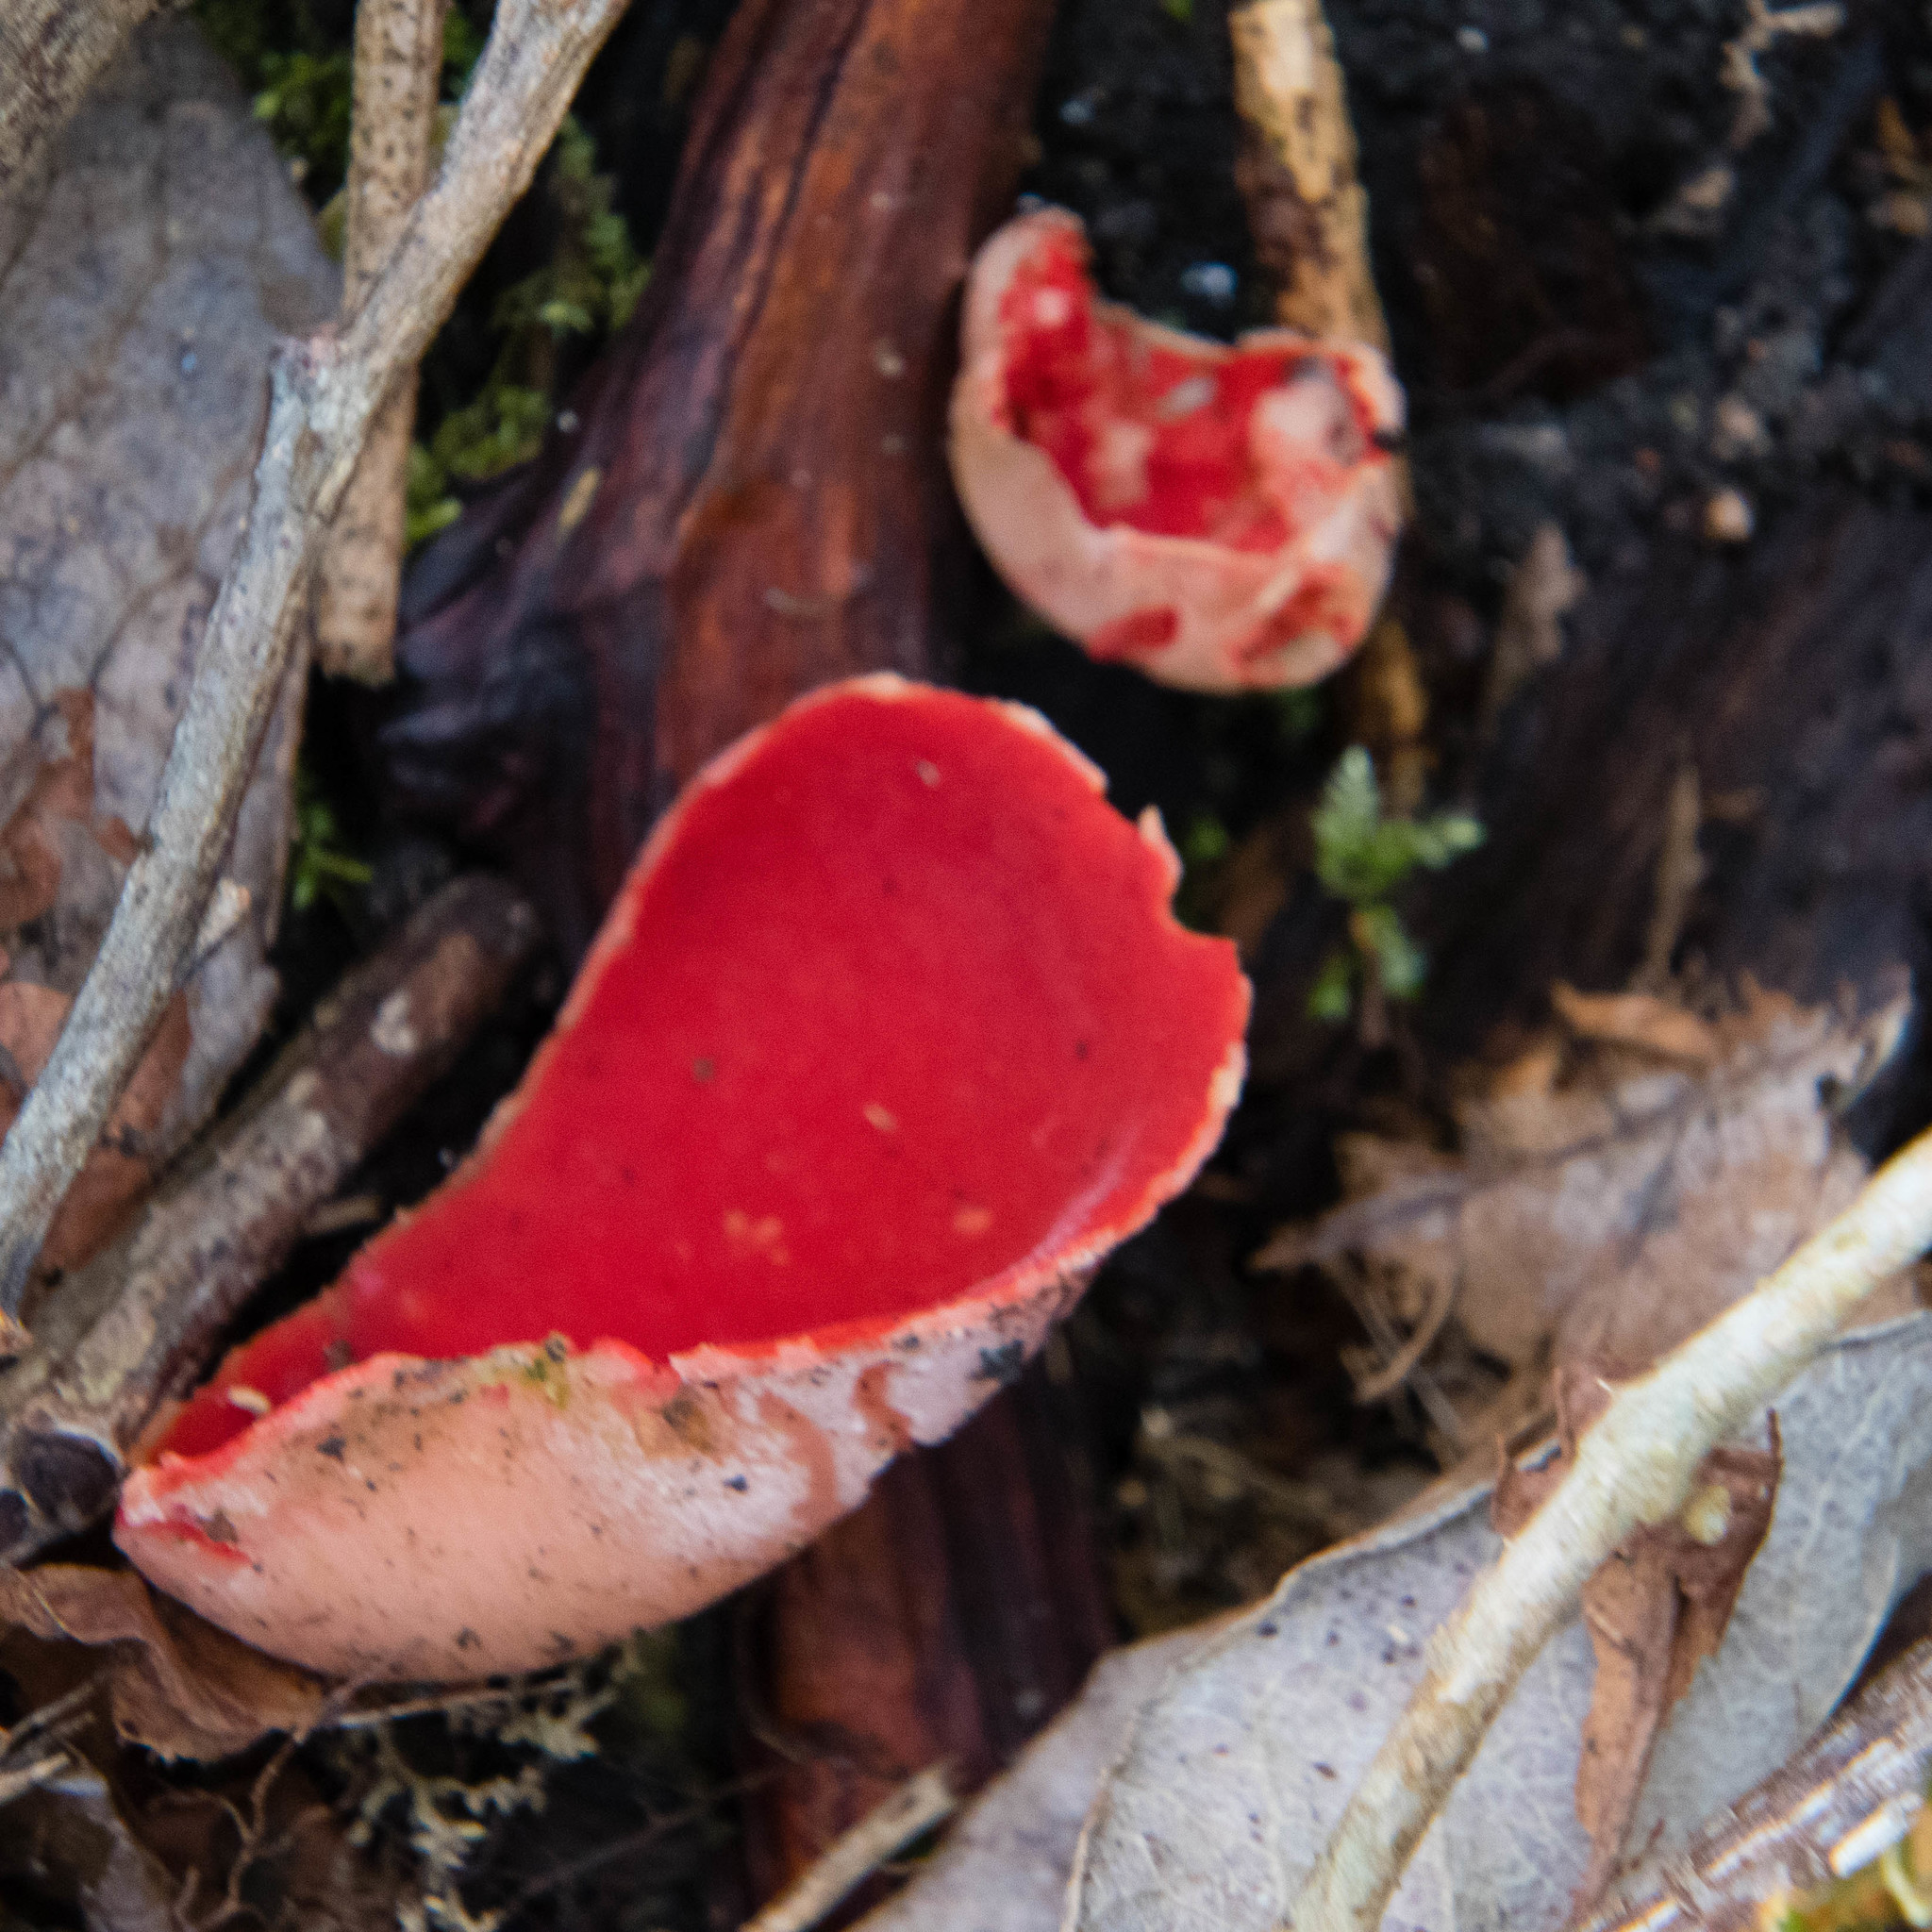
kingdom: Fungi
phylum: Ascomycota
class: Pezizomycetes
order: Pezizales
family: Sarcoscyphaceae
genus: Sarcoscypha
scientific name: Sarcoscypha
